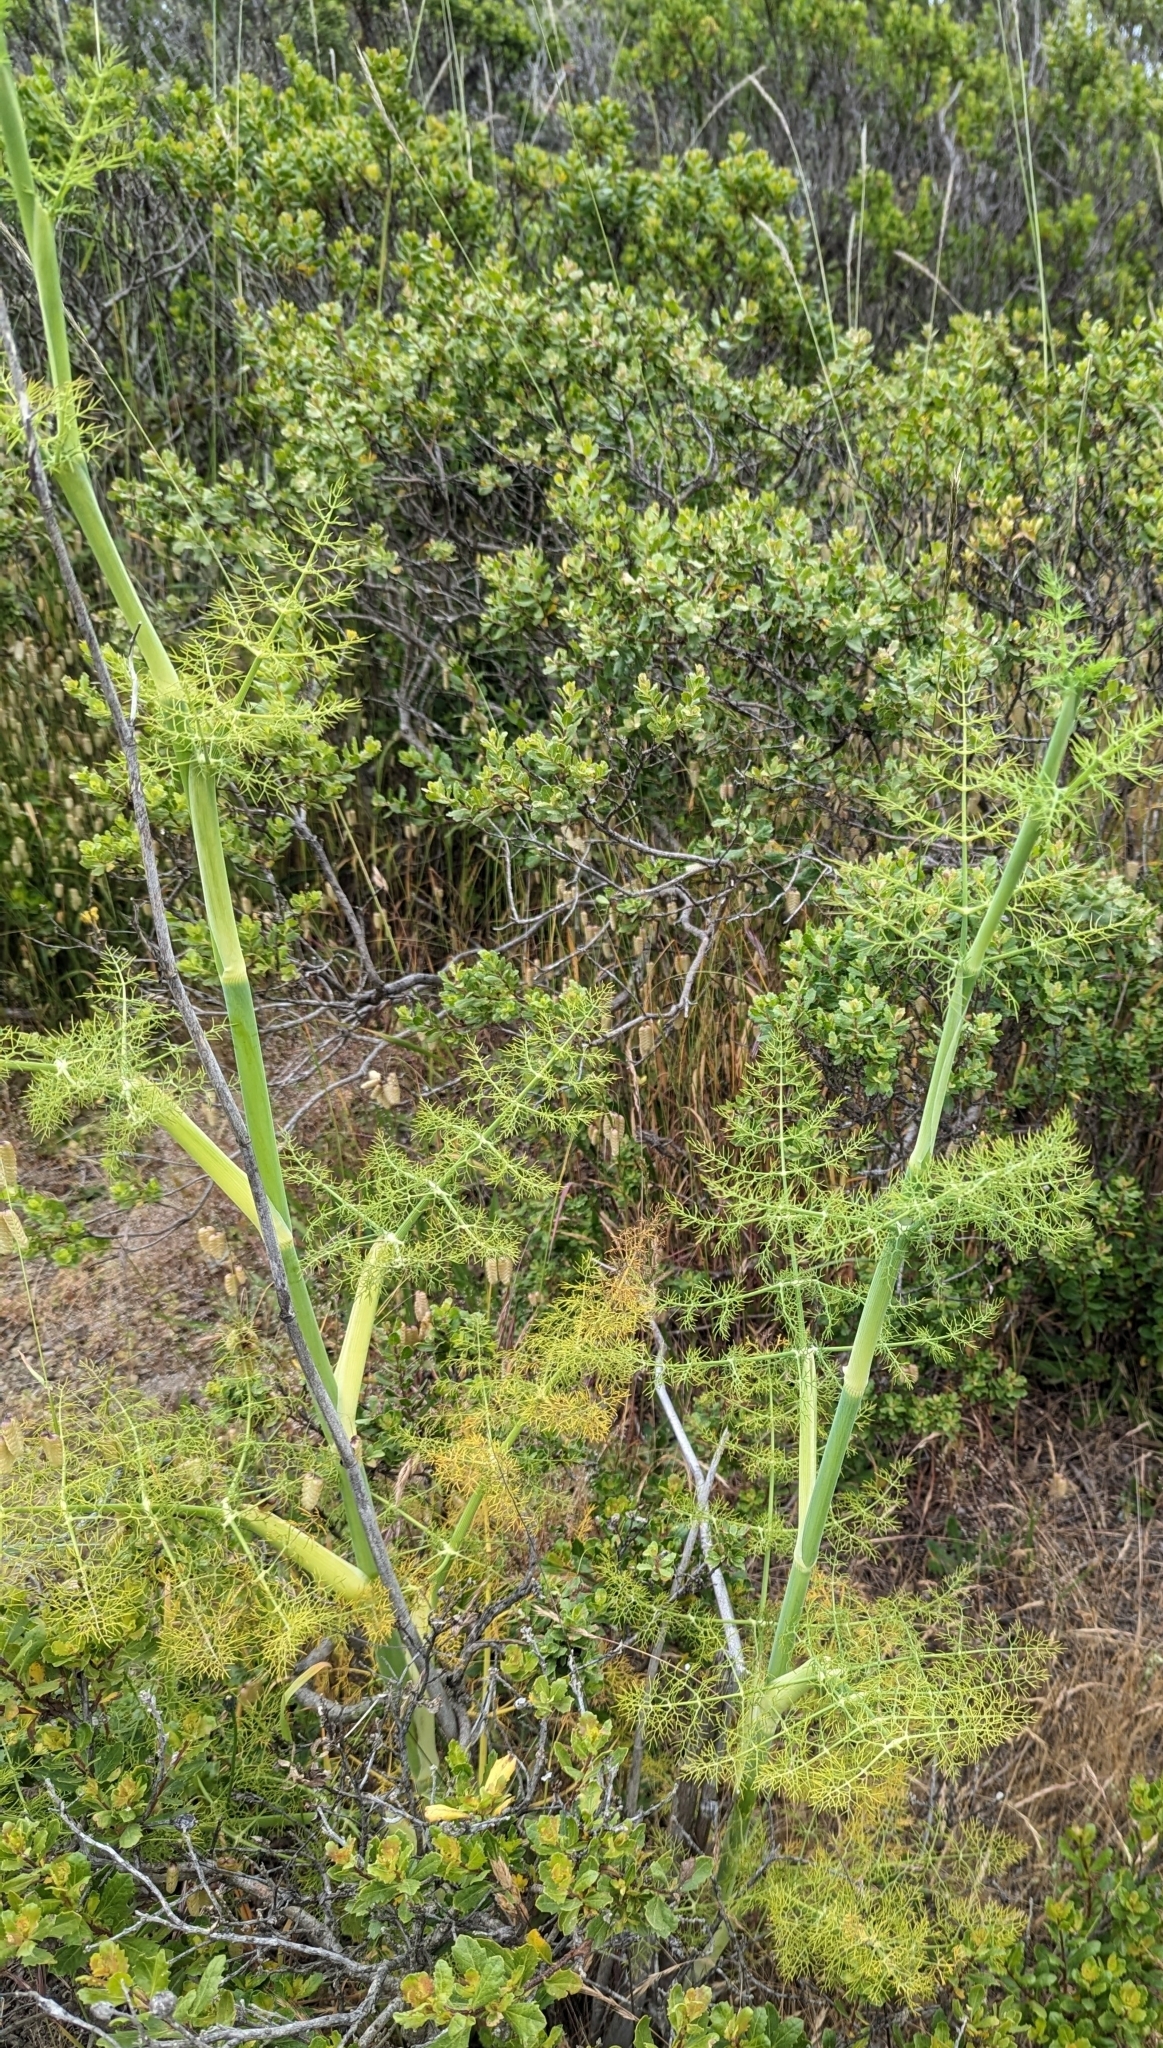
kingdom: Plantae
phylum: Tracheophyta
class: Magnoliopsida
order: Apiales
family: Apiaceae
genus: Foeniculum
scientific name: Foeniculum vulgare
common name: Fennel
